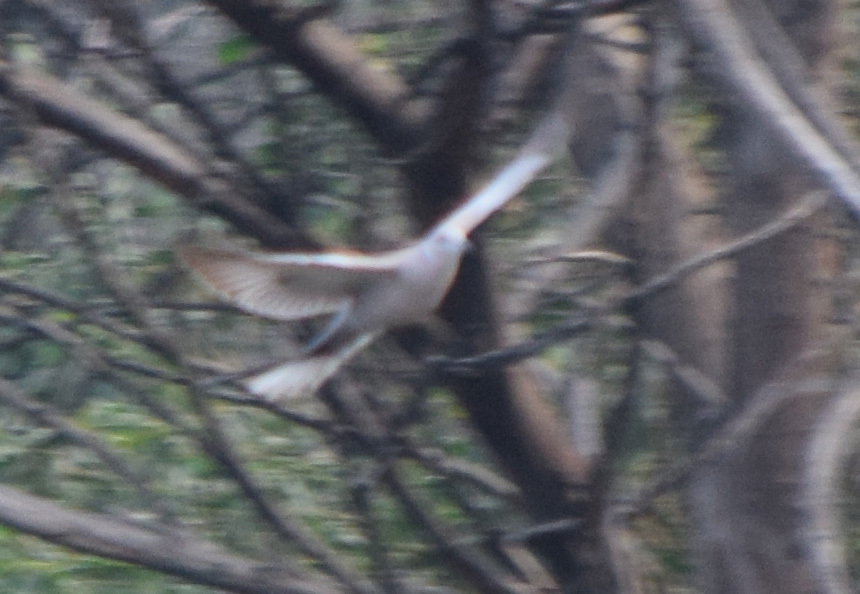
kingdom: Animalia
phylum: Chordata
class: Aves
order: Columbiformes
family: Columbidae
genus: Streptopelia
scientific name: Streptopelia decaocto
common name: Eurasian collared dove
